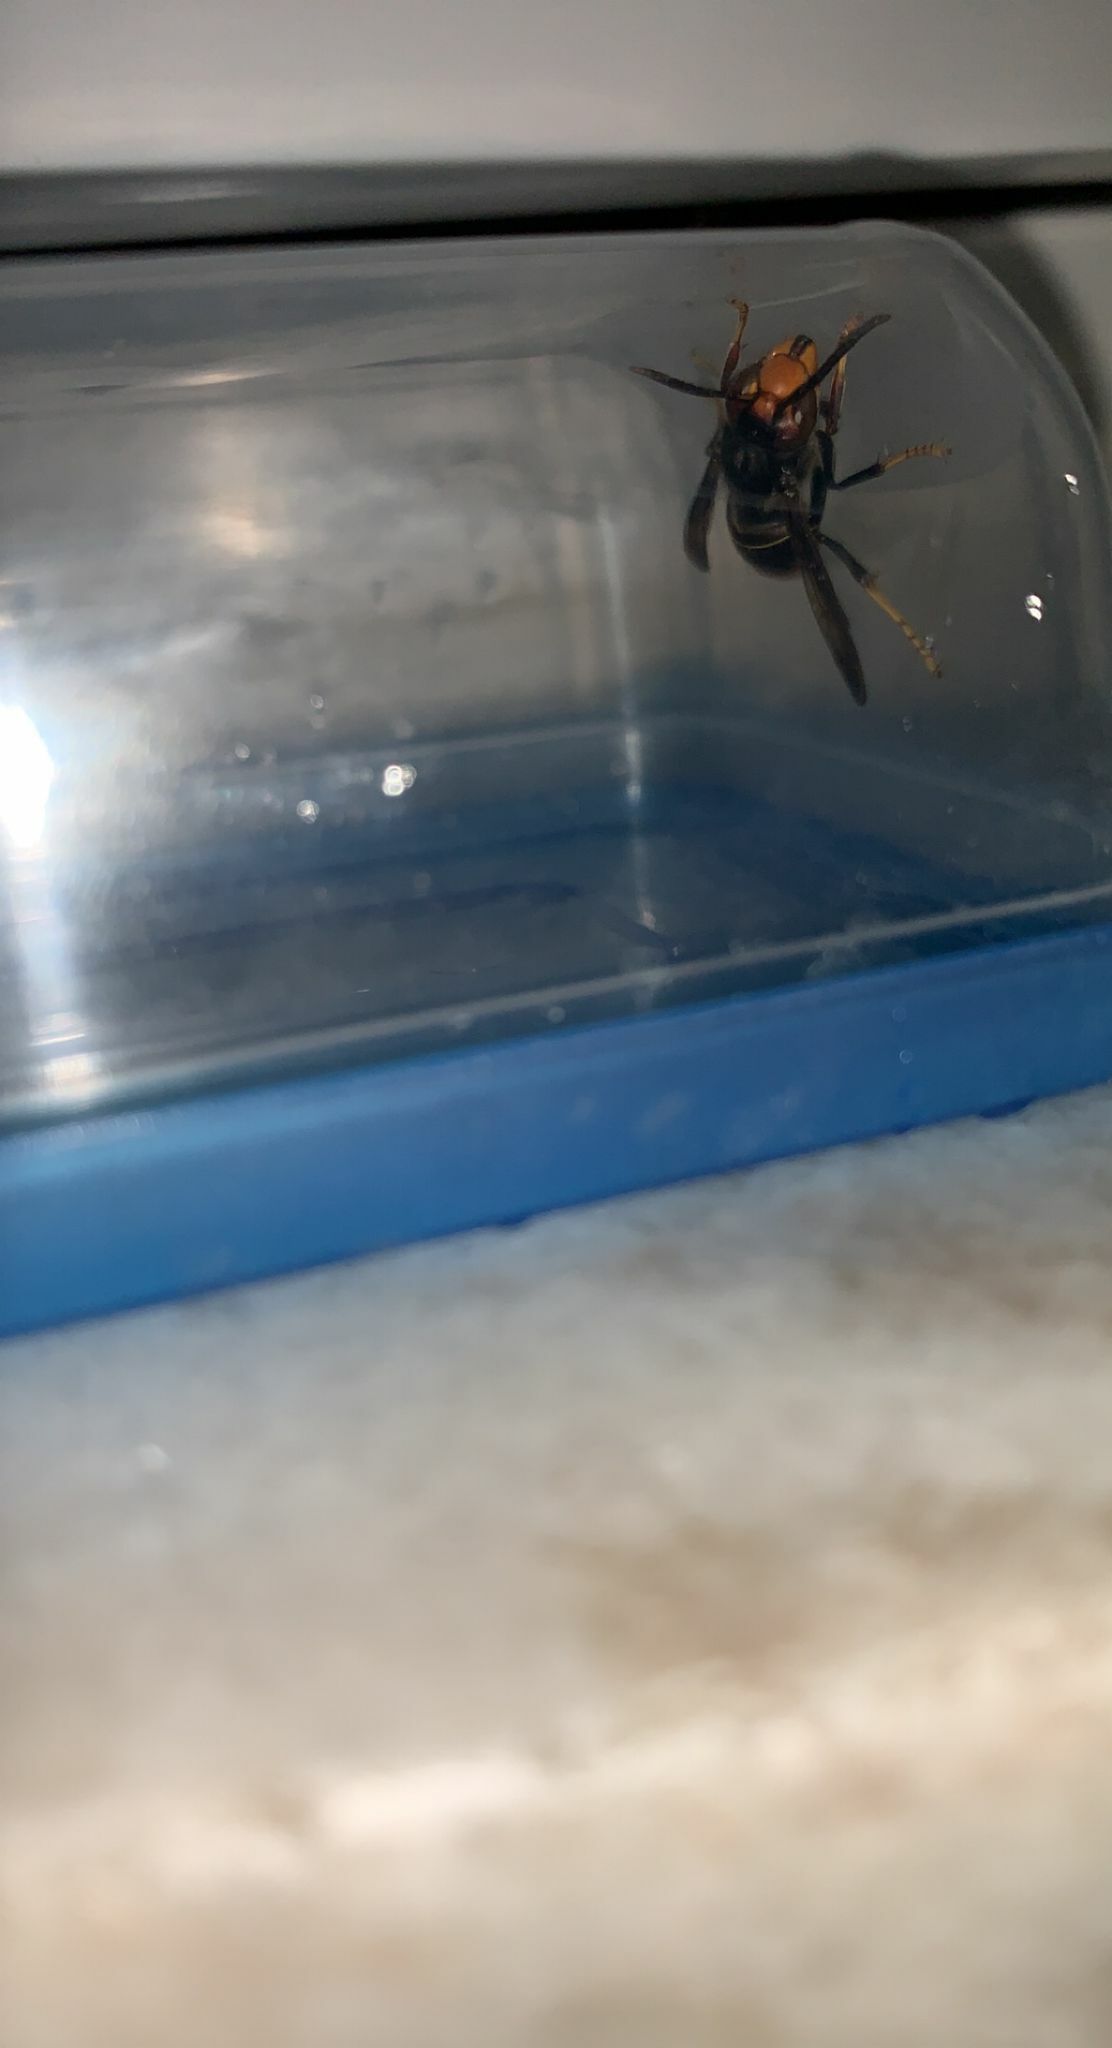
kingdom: Animalia
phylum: Arthropoda
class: Insecta
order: Hymenoptera
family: Vespidae
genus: Vespa
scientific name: Vespa velutina
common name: Asian hornet
